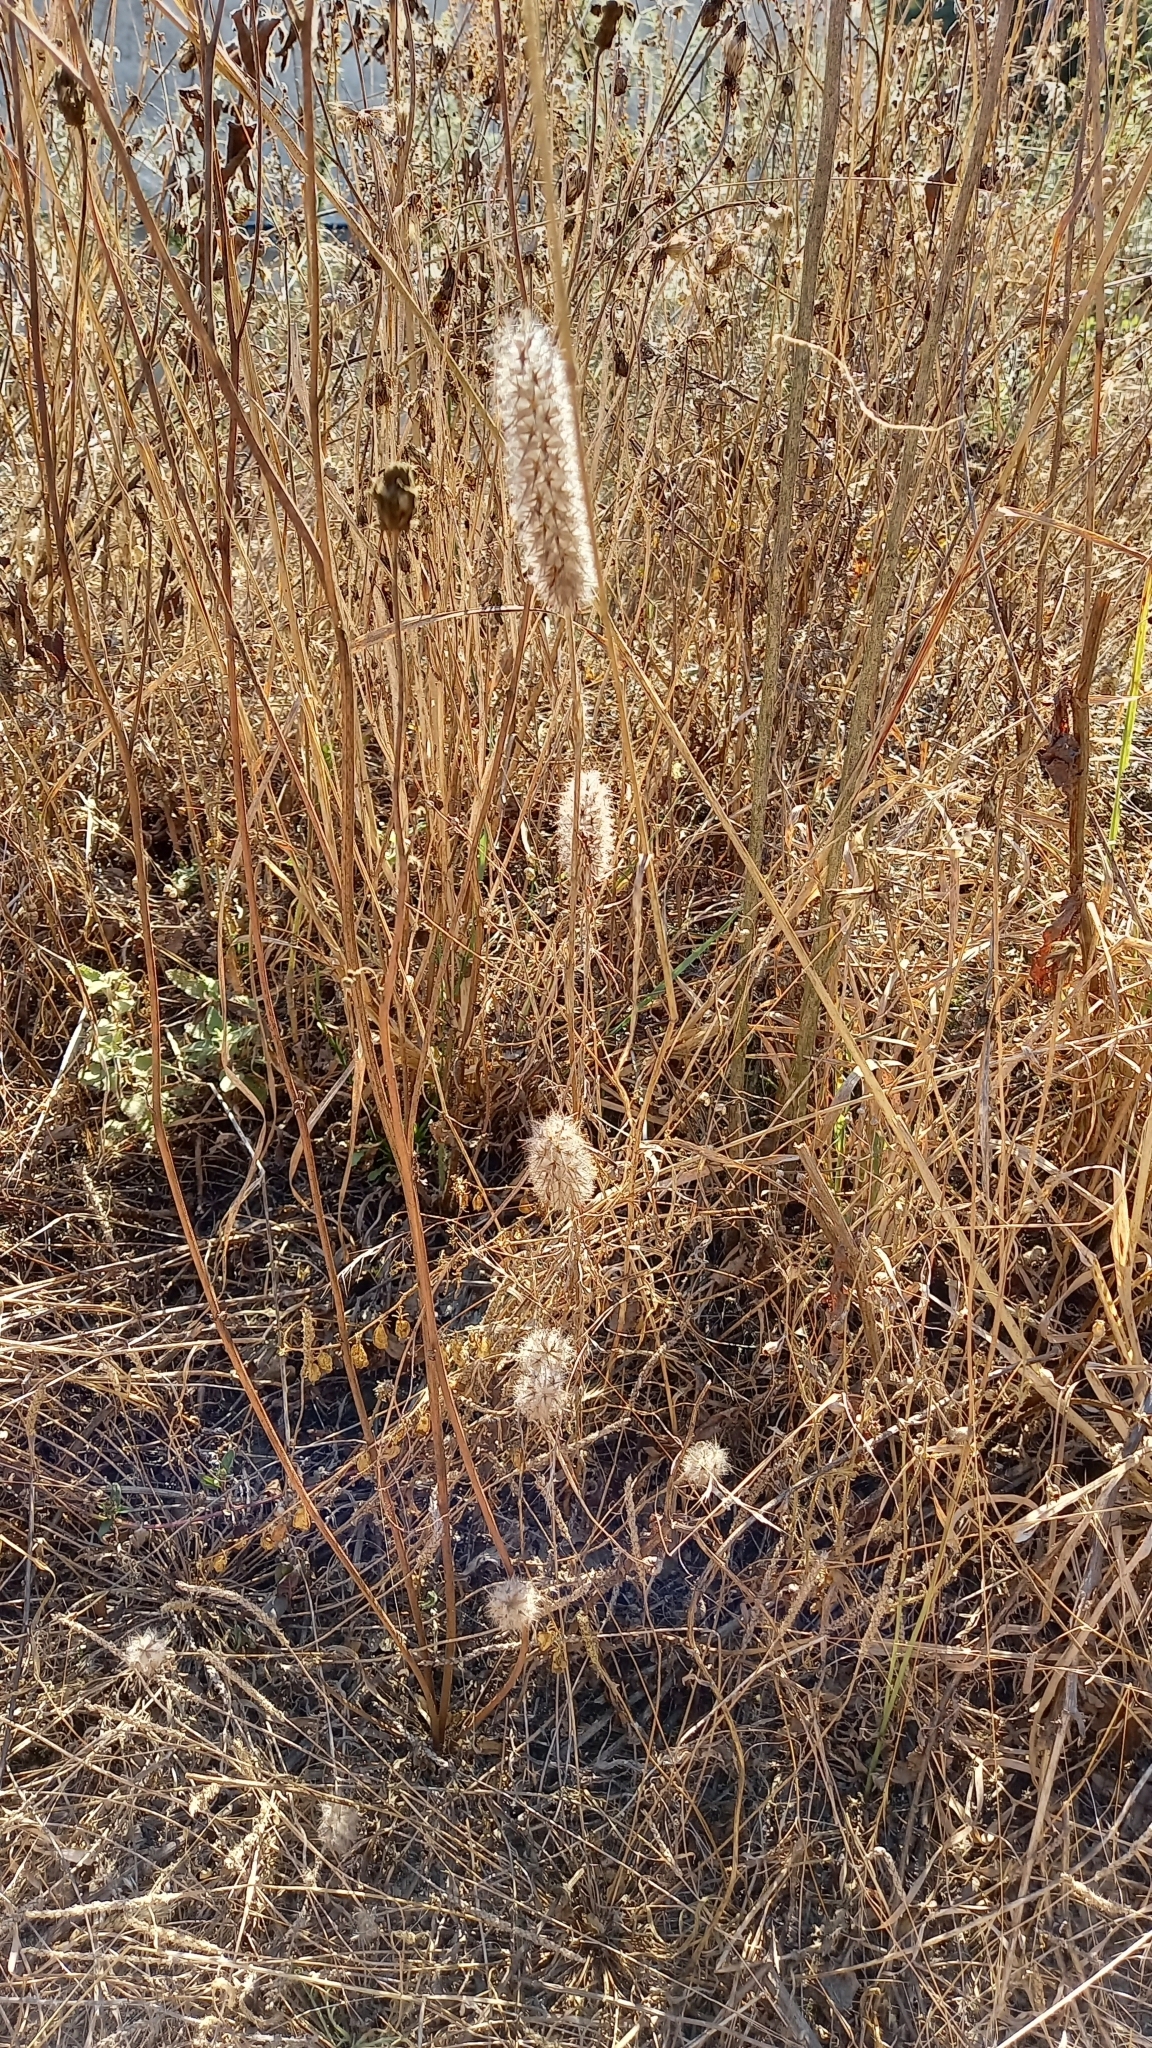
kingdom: Plantae
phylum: Tracheophyta
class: Magnoliopsida
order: Fabales
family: Fabaceae
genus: Trifolium
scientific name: Trifolium angustifolium
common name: Narrow clover
